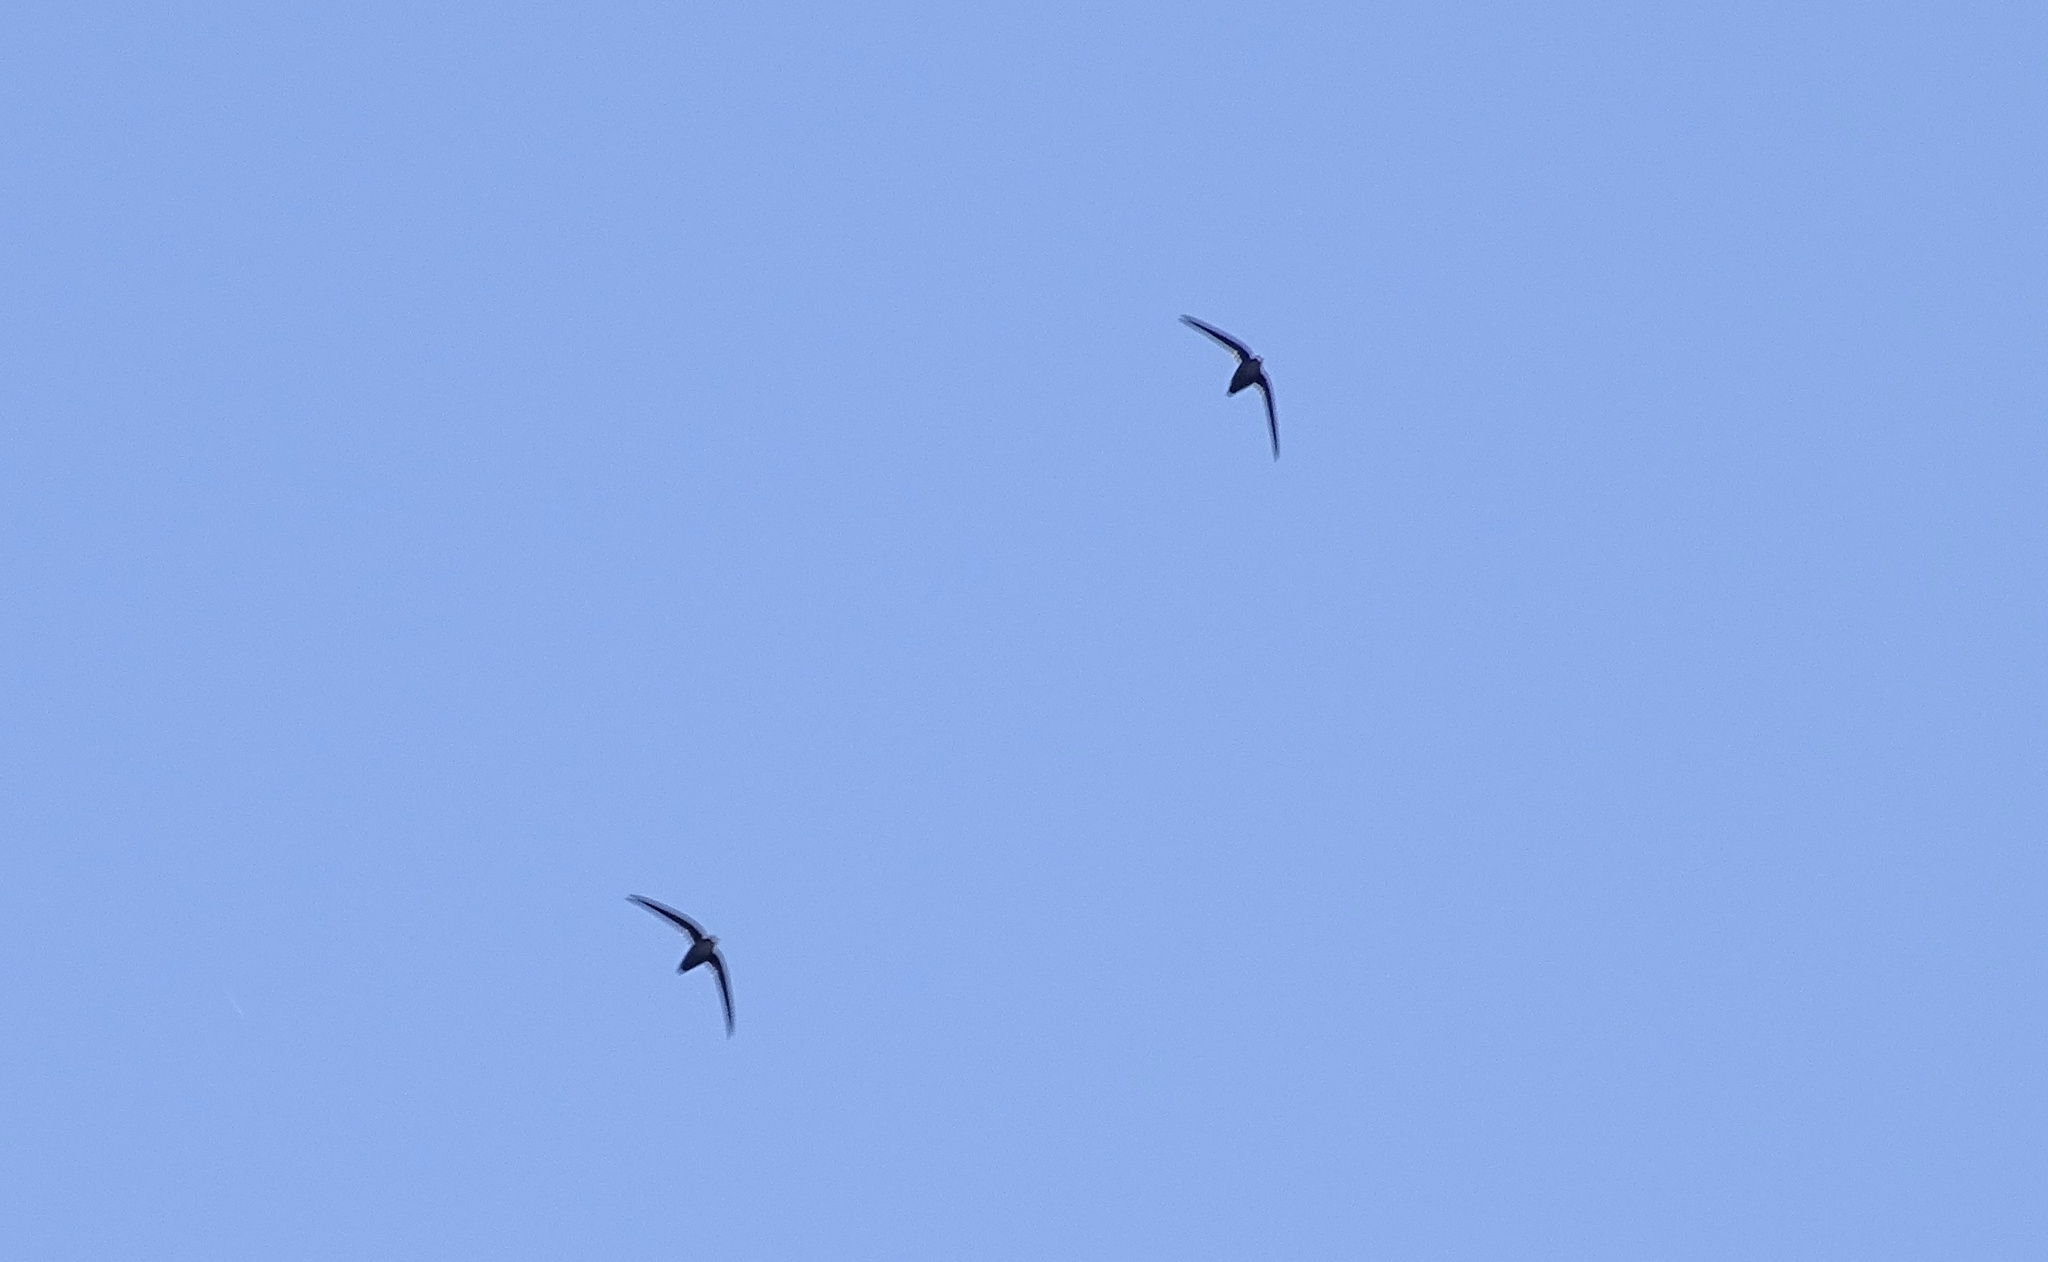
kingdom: Animalia
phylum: Chordata
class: Aves
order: Apodiformes
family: Apodidae
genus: Chaetura
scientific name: Chaetura pelagica
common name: Chimney swift
